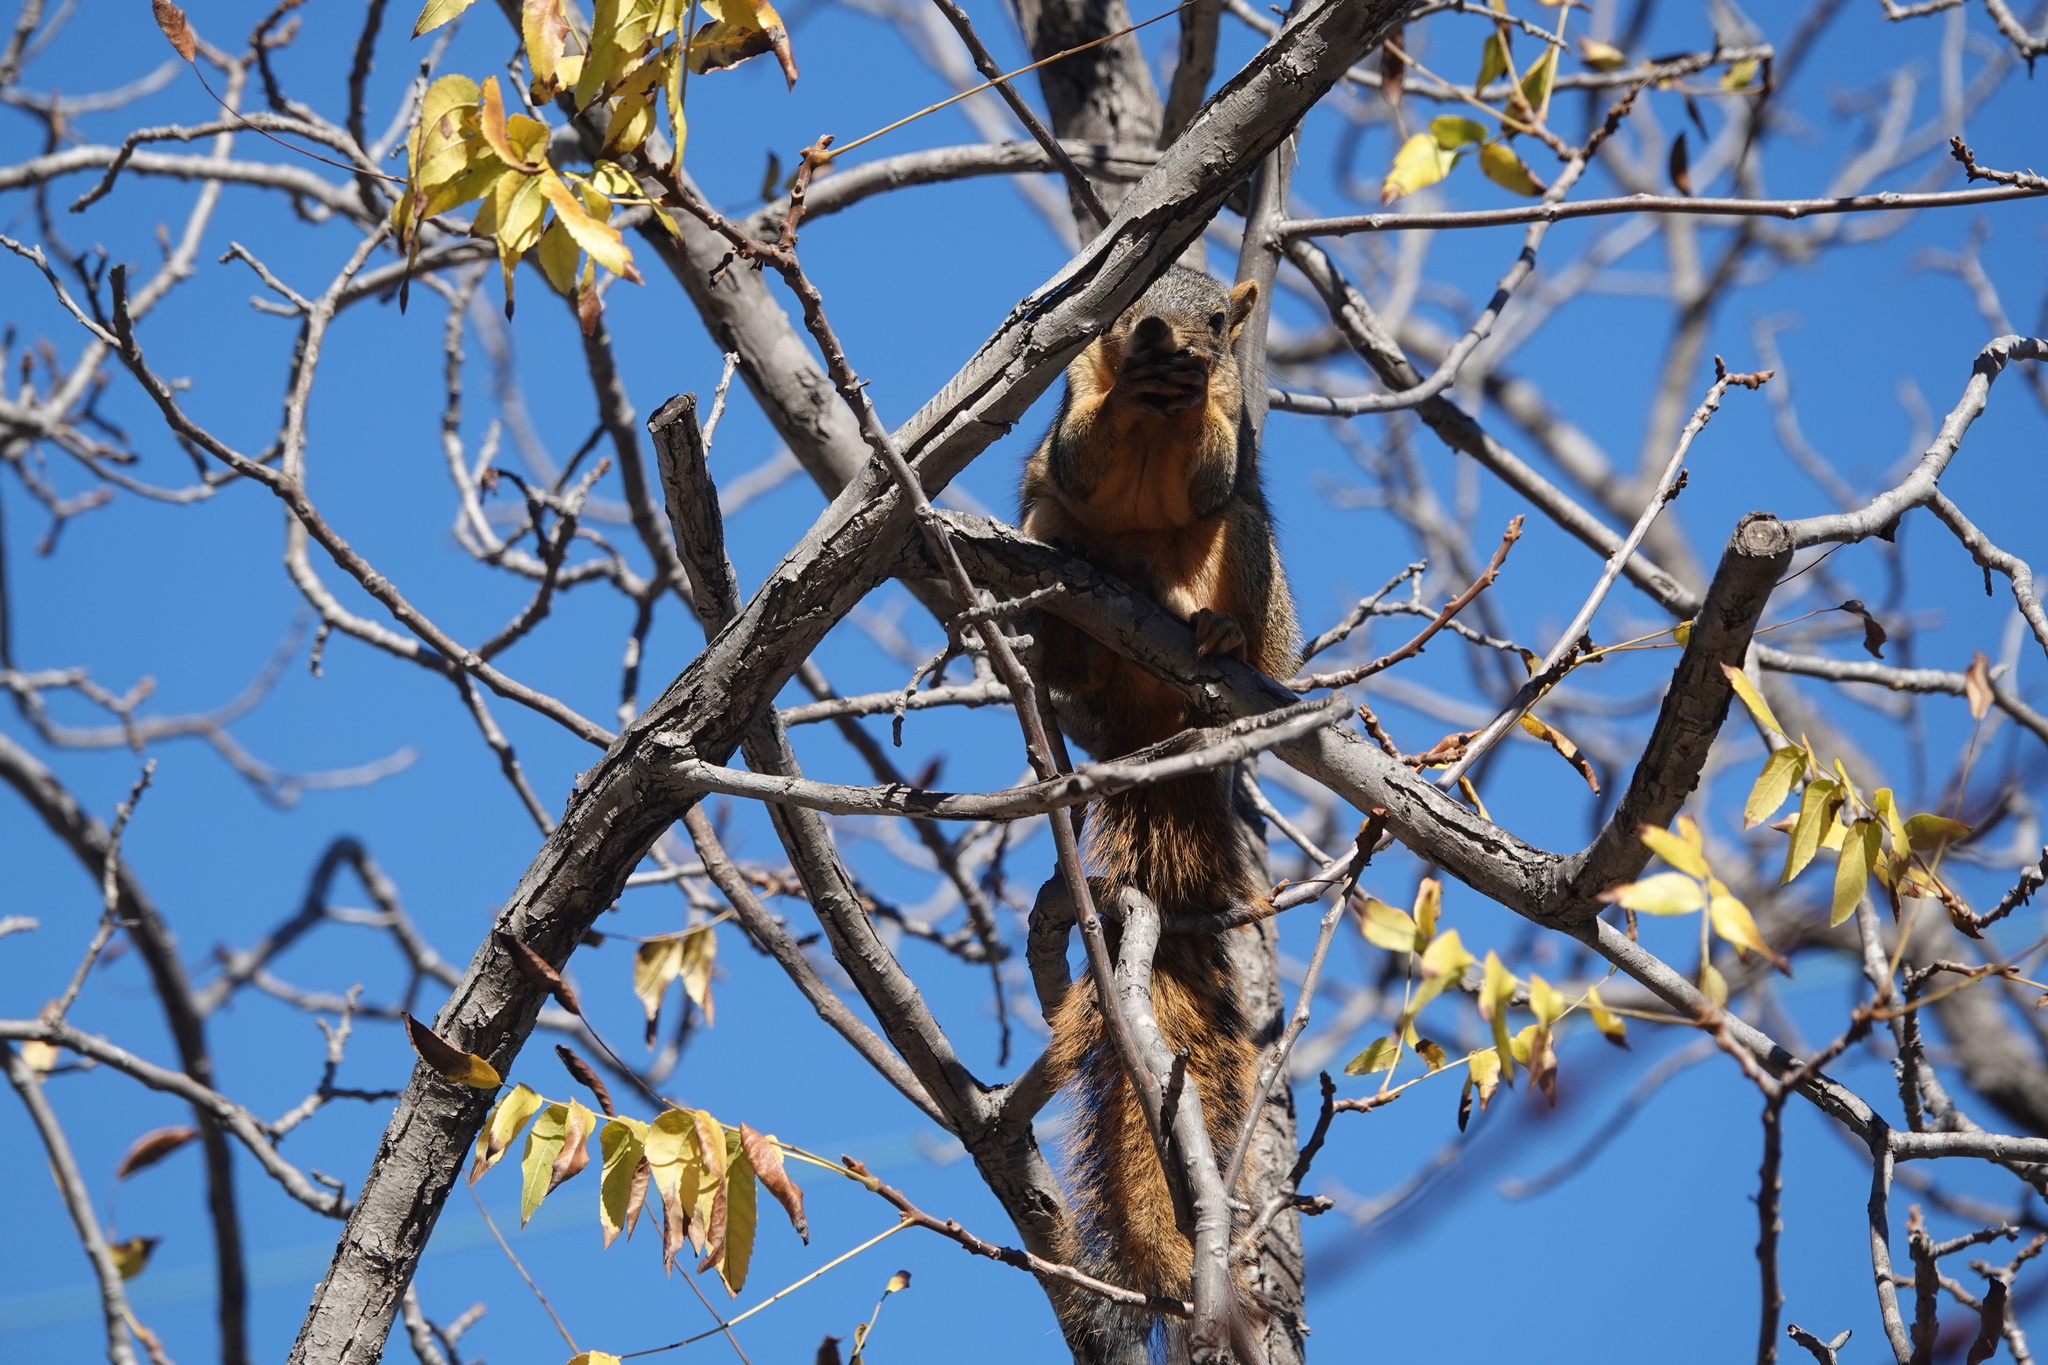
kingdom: Animalia
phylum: Chordata
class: Mammalia
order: Rodentia
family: Sciuridae
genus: Sciurus
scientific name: Sciurus niger
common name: Fox squirrel
